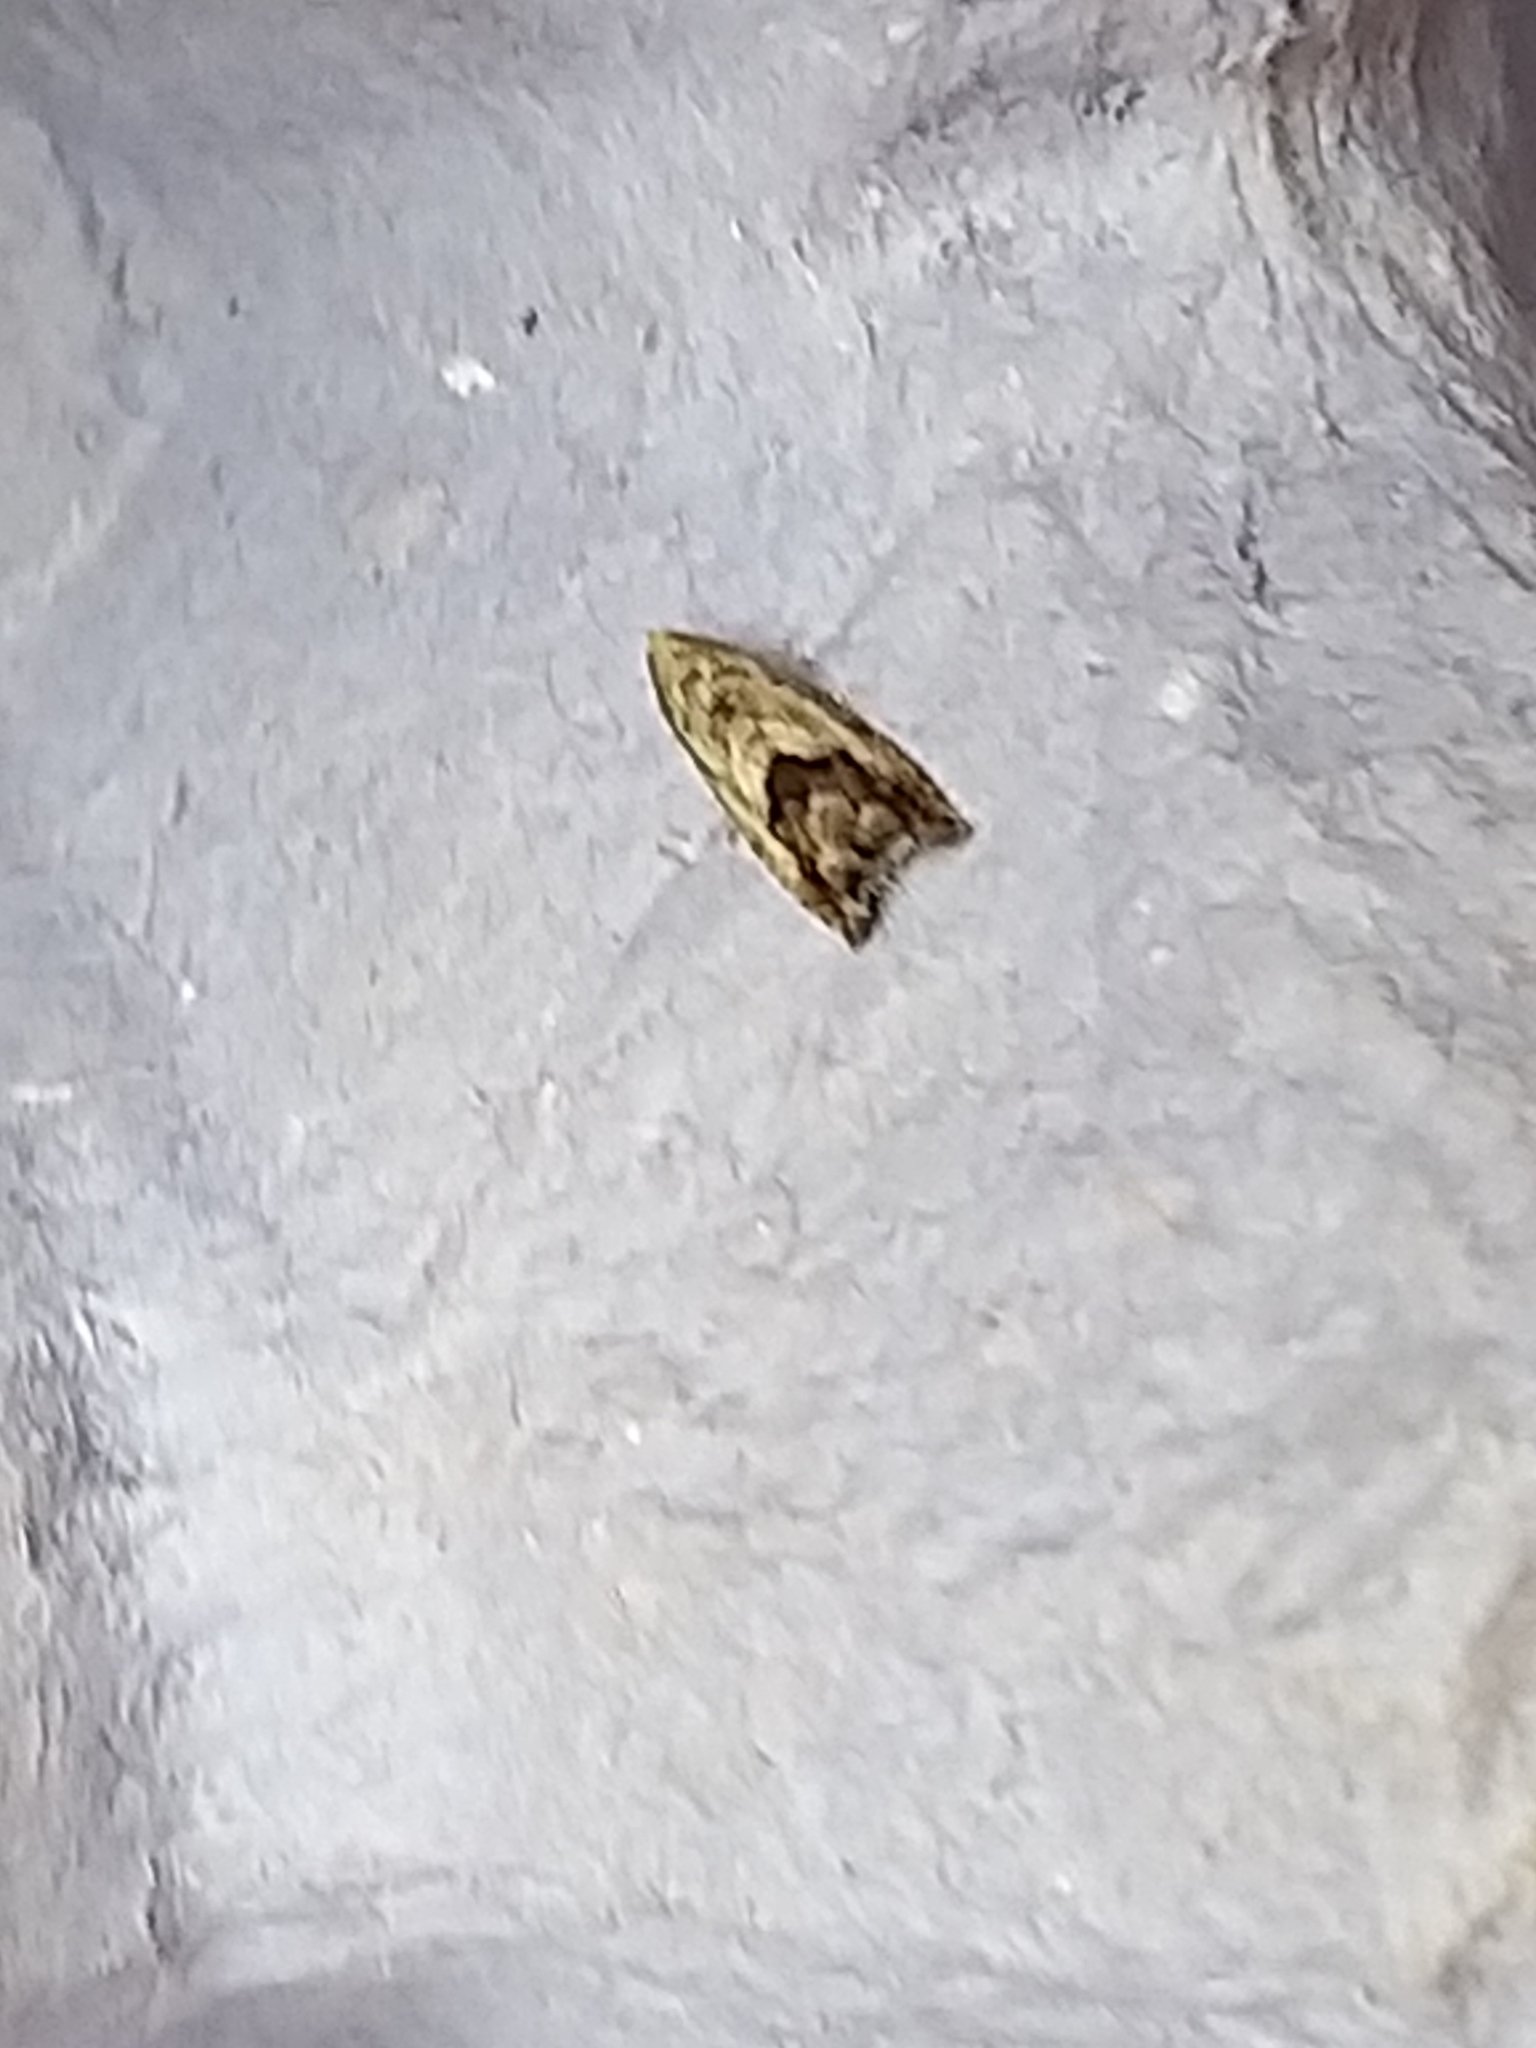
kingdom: Animalia
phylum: Arthropoda
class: Insecta
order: Lepidoptera
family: Tortricidae
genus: Cydia
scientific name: Cydia splendana
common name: De: kastanienwickler, eichenwickler es: oruga de la castaña fr: carpocapse des châtaignes it: cidia o tortrice tardiva delle castagne pt: bichado das castanhas gb: acorn moth, chestnut fruit tortrix
